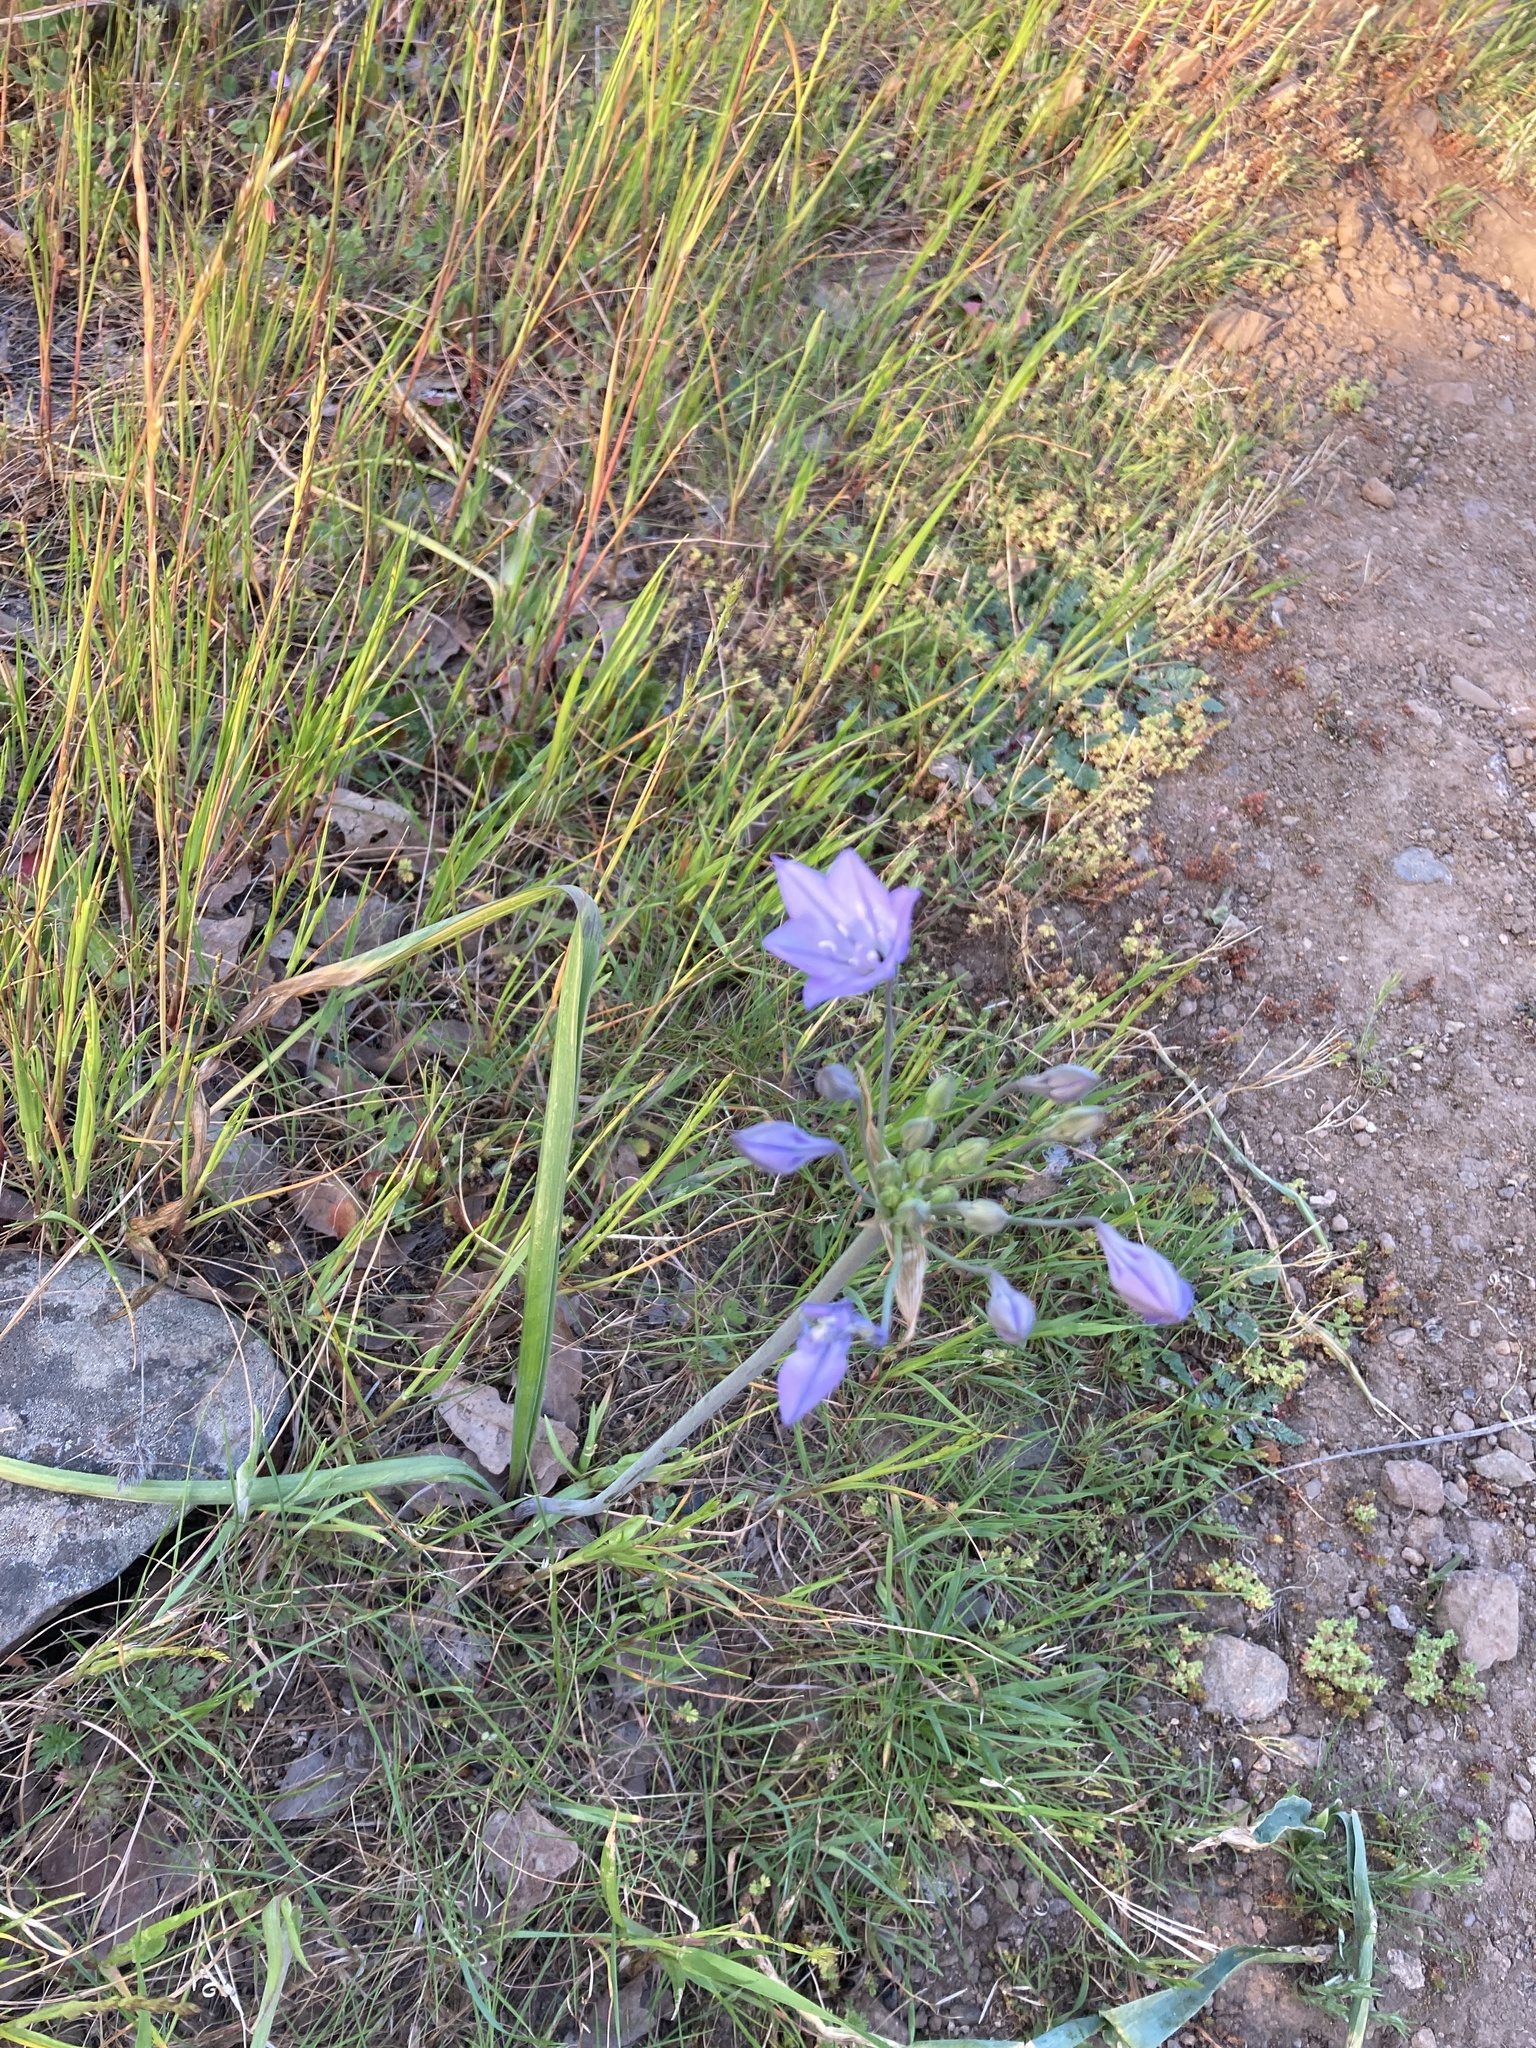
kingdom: Plantae
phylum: Tracheophyta
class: Liliopsida
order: Asparagales
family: Asparagaceae
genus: Triteleia
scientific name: Triteleia laxa
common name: Triplet-lily
